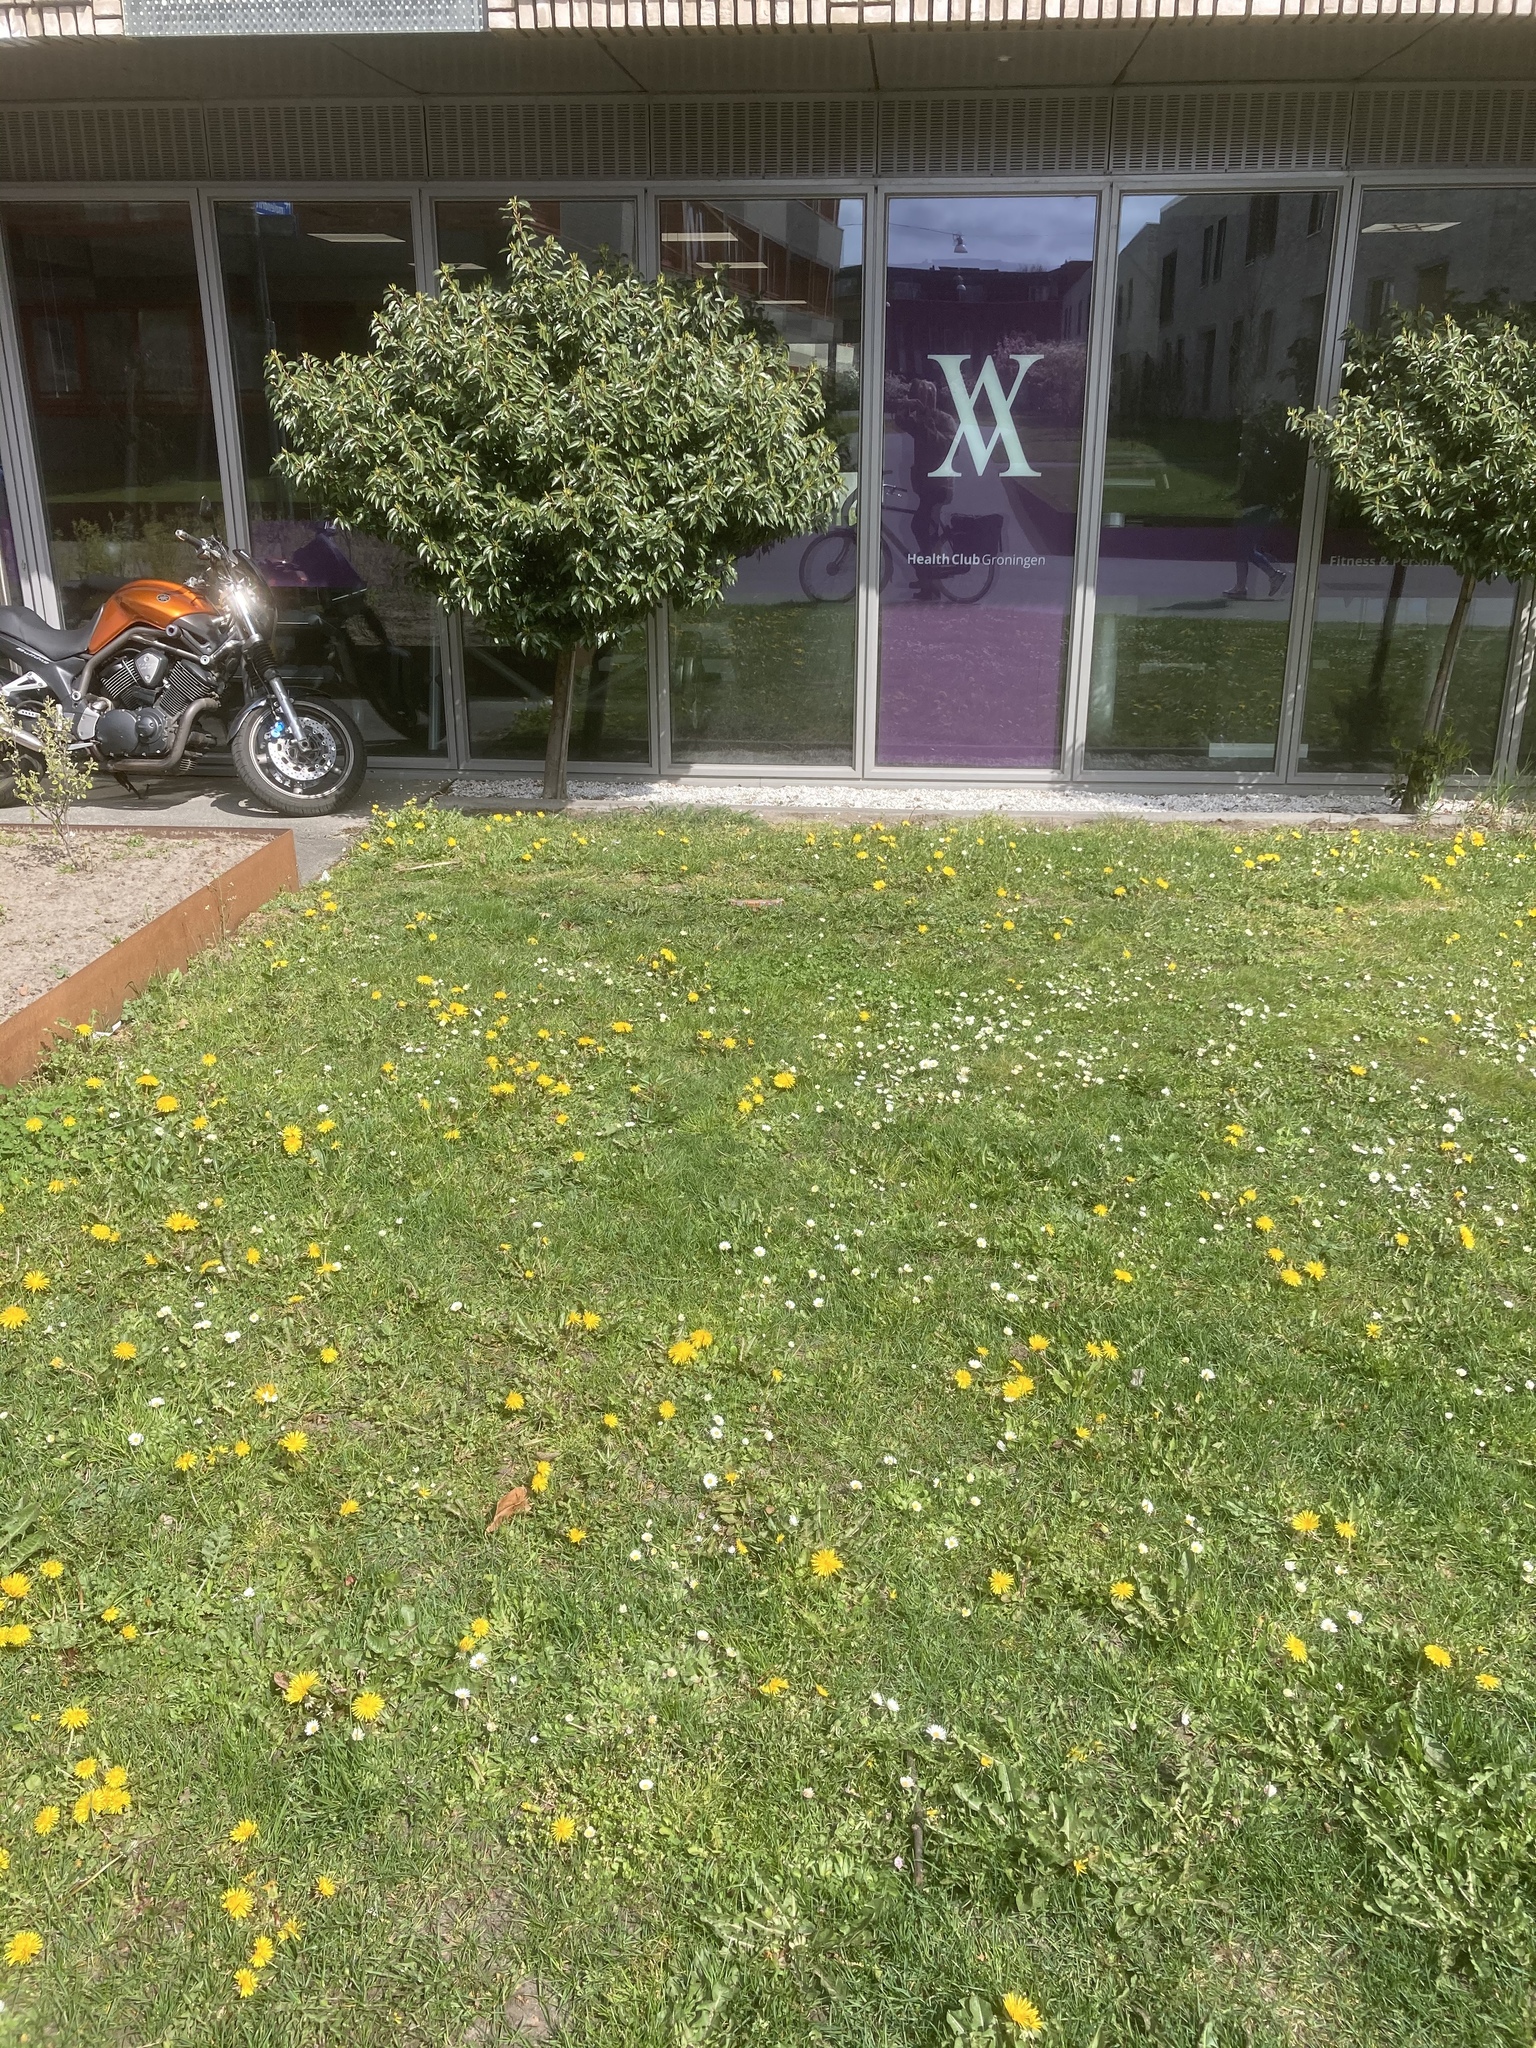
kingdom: Plantae
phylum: Tracheophyta
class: Magnoliopsida
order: Asterales
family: Asteraceae
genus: Bellis
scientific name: Bellis perennis
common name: Lawndaisy
